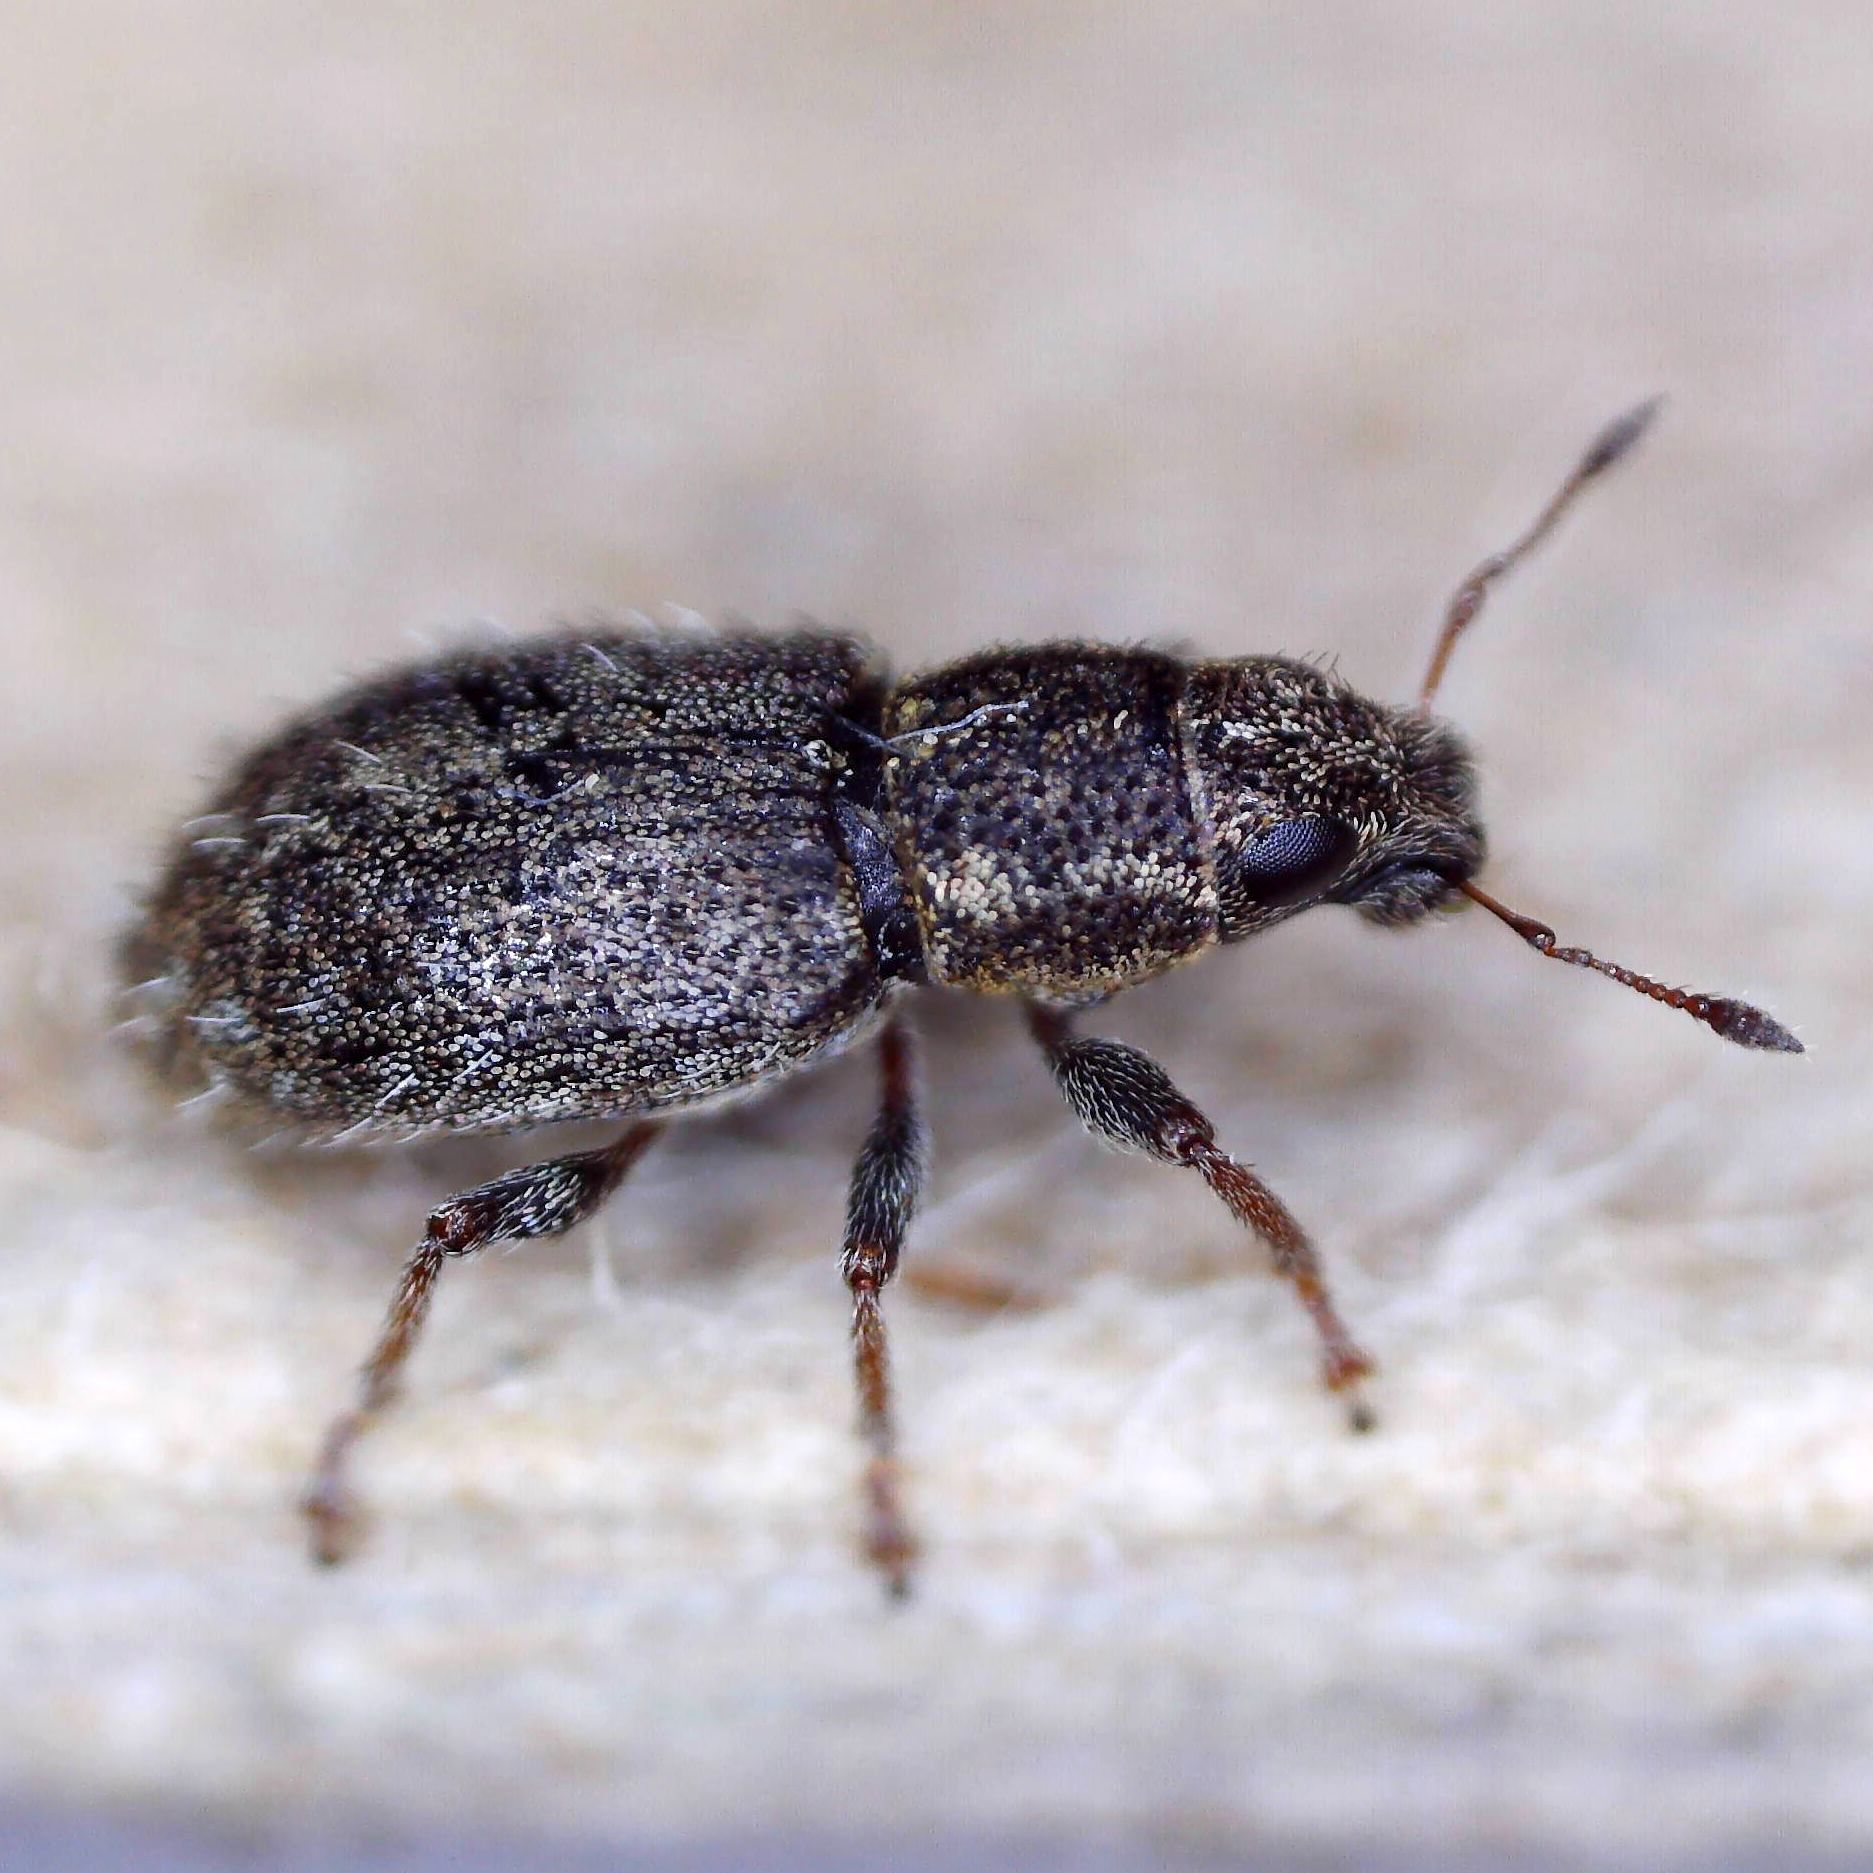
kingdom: Animalia
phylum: Arthropoda
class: Insecta
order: Coleoptera
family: Curculionidae
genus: Sitona
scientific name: Sitona hispidulus
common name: Clover weevil
